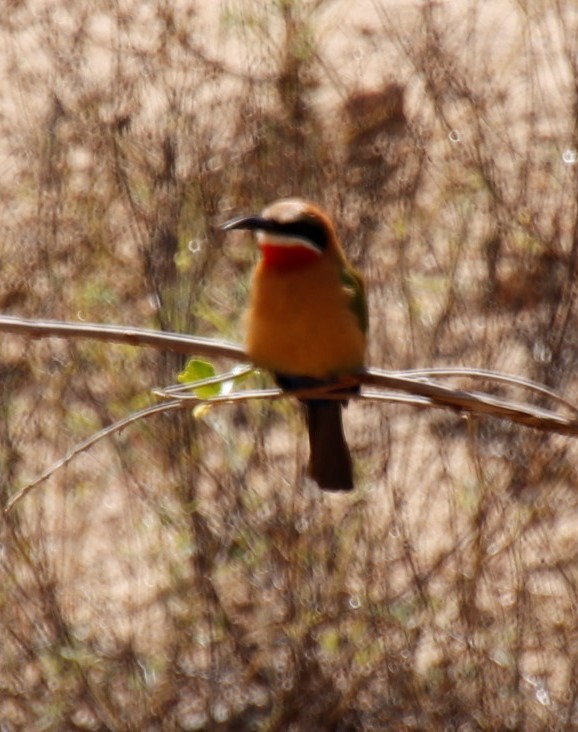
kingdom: Animalia
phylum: Chordata
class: Aves
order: Coraciiformes
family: Meropidae
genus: Merops
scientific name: Merops bullockoides
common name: White-fronted bee-eater
